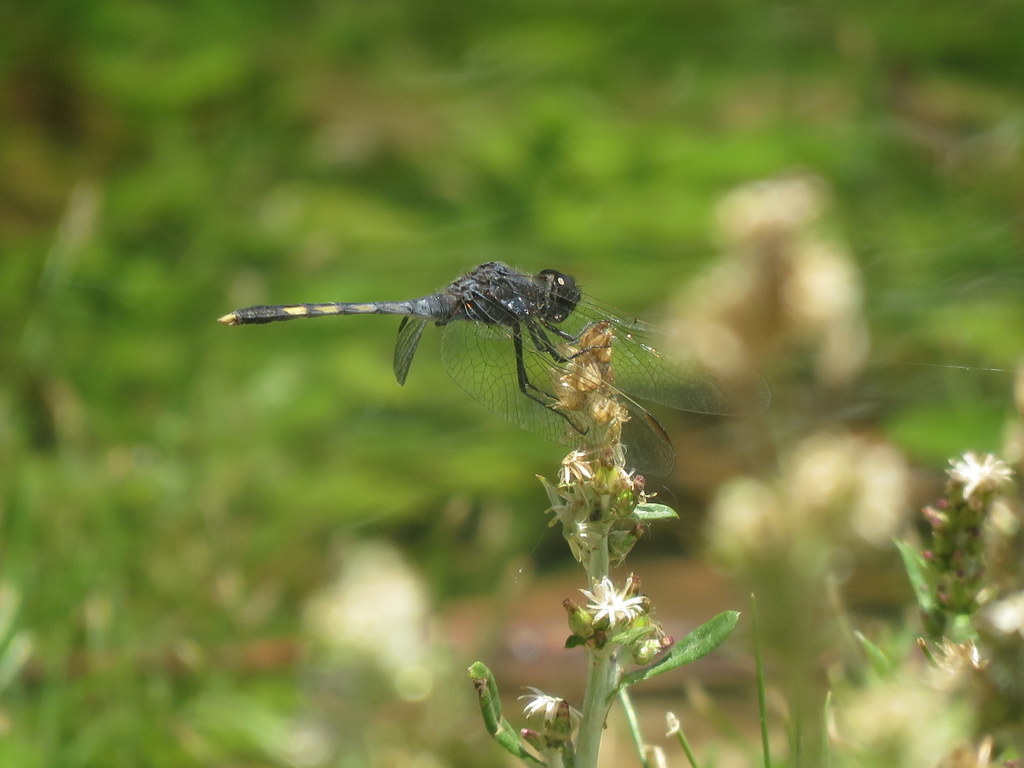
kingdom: Animalia
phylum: Arthropoda
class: Insecta
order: Odonata
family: Libellulidae
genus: Erythrodiplax
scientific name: Erythrodiplax nigricans
